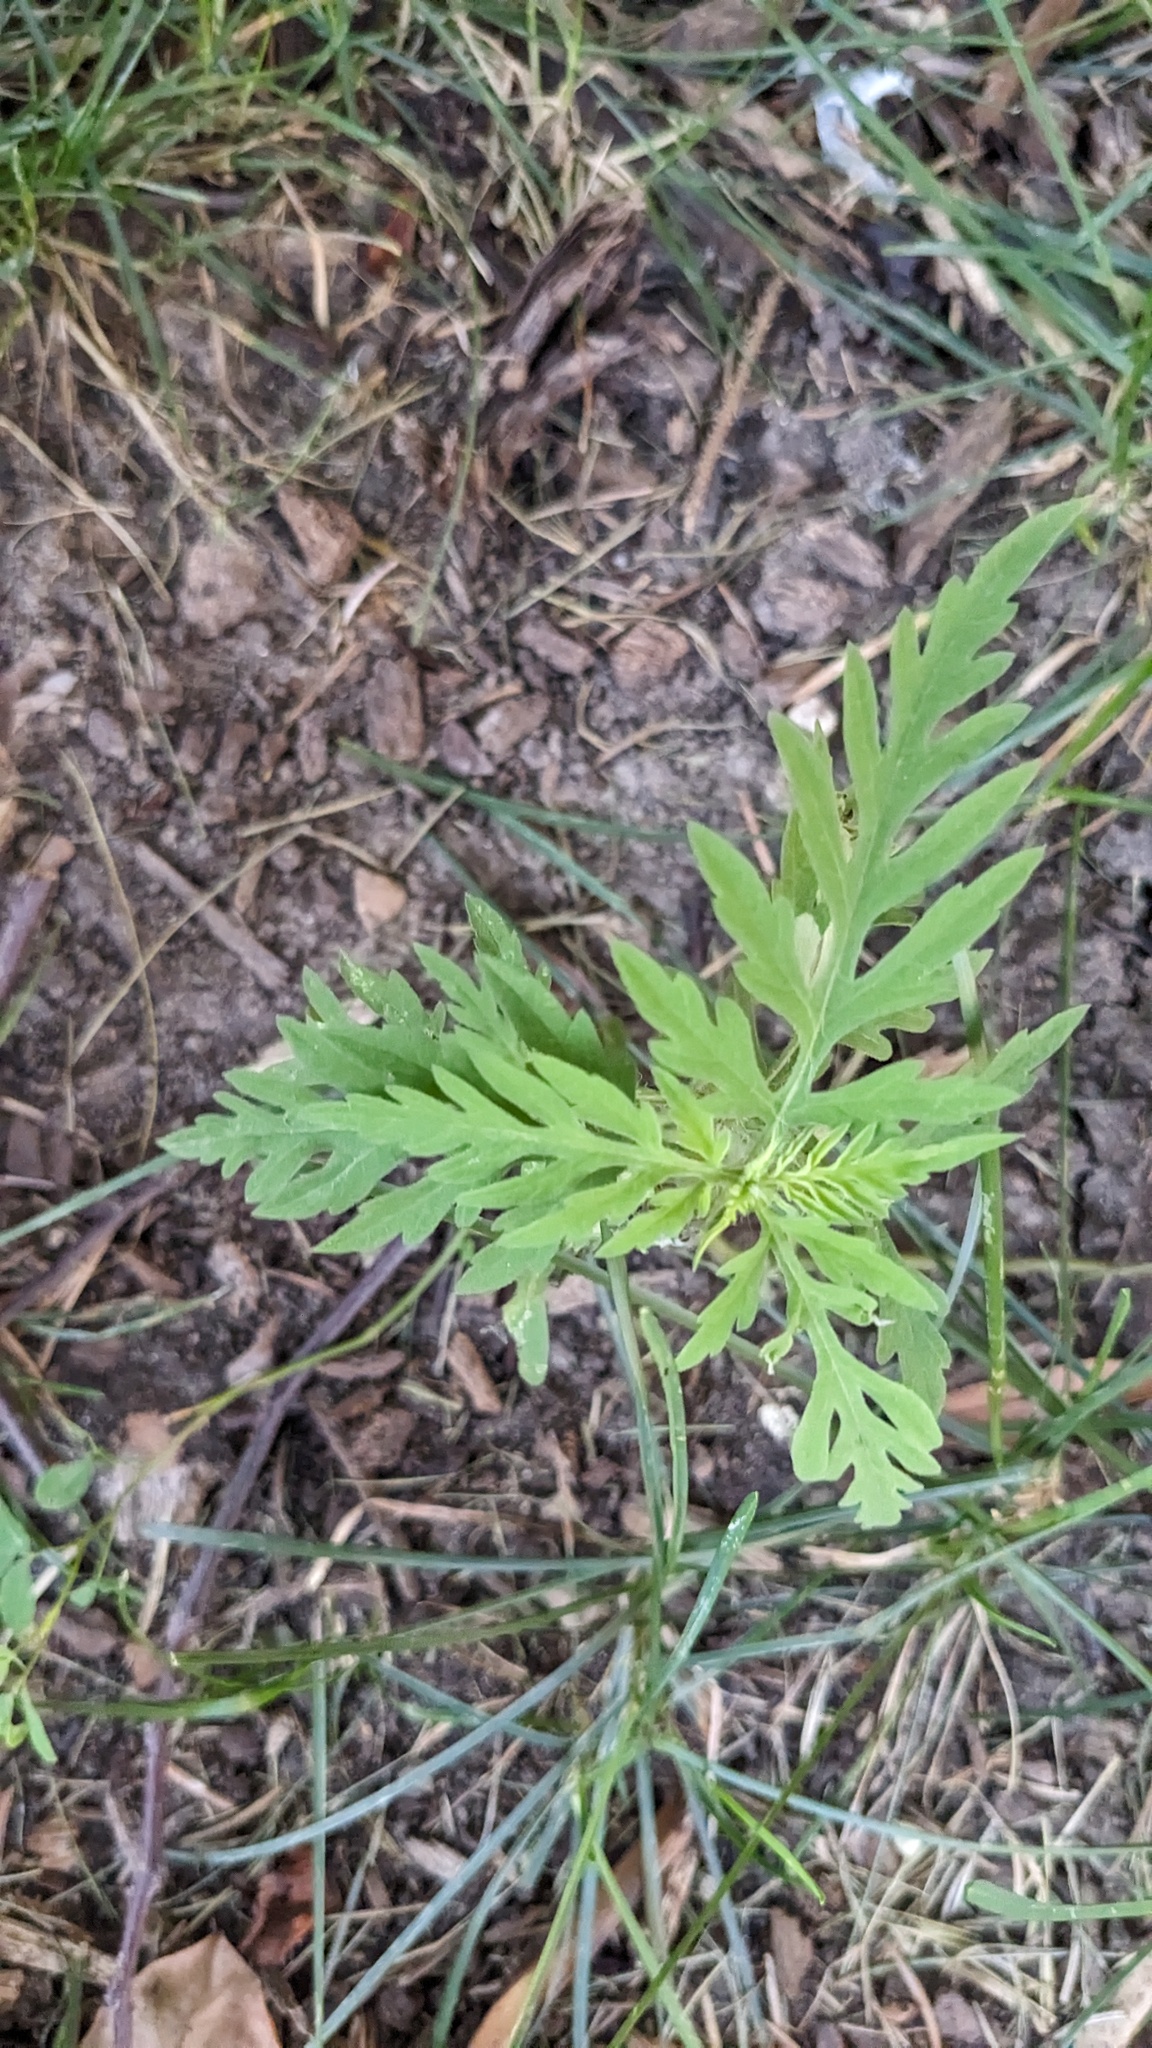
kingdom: Plantae
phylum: Tracheophyta
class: Magnoliopsida
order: Asterales
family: Asteraceae
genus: Ambrosia
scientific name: Ambrosia artemisiifolia
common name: Annual ragweed
